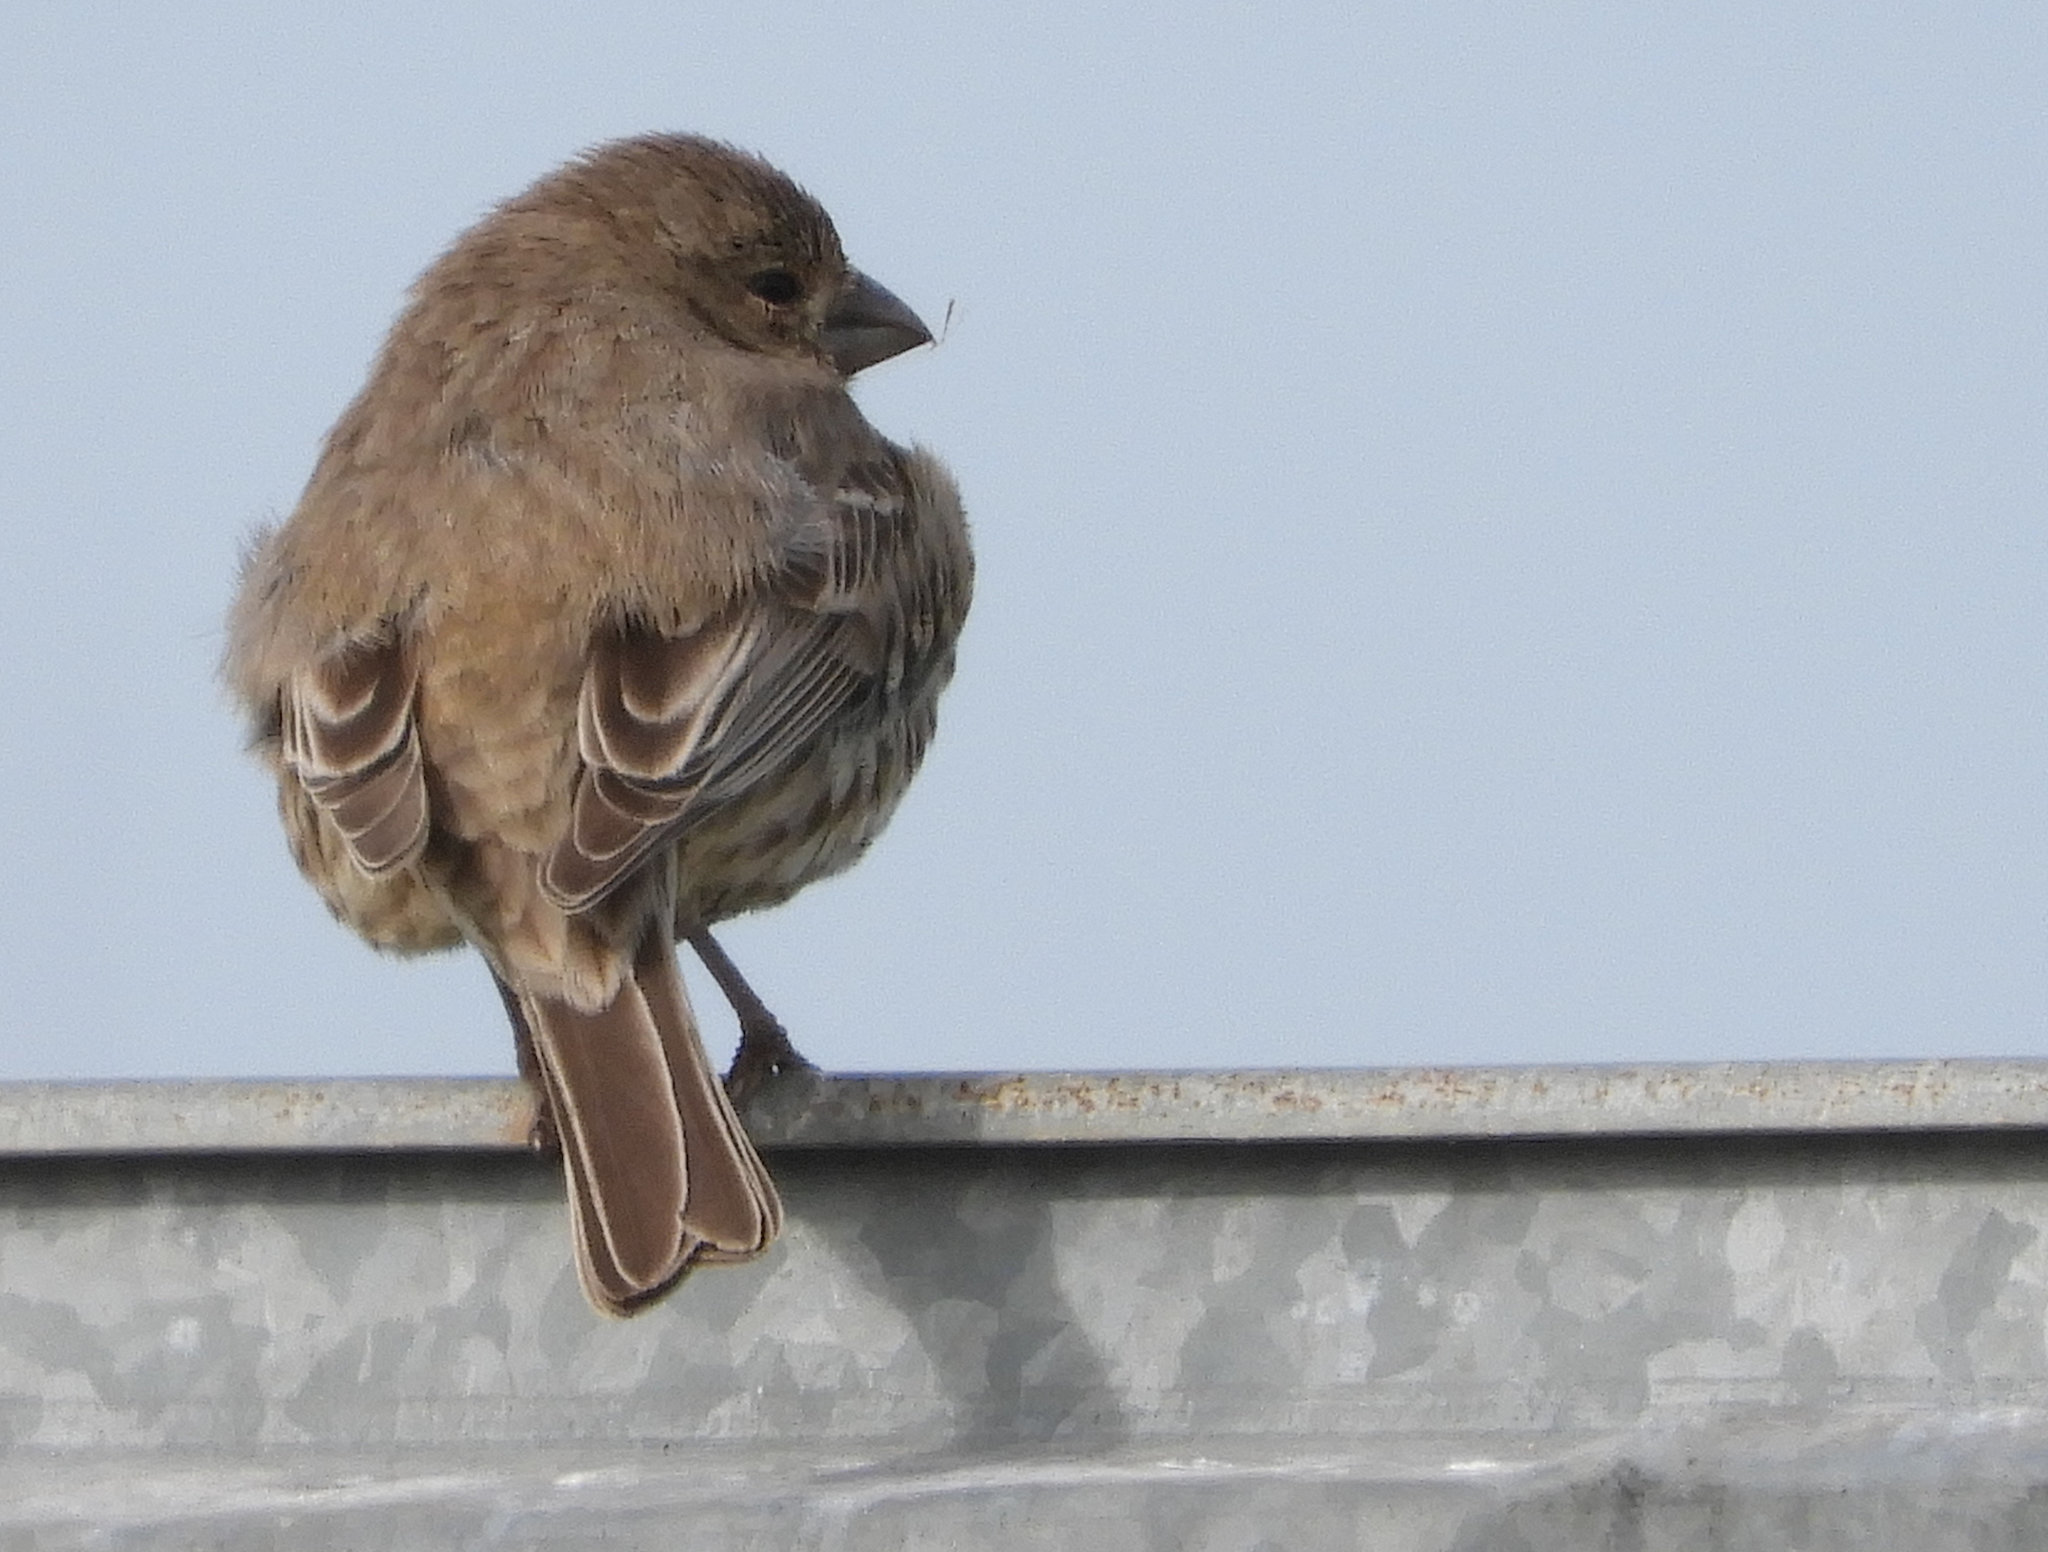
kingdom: Animalia
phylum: Chordata
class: Aves
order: Passeriformes
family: Fringillidae
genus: Haemorhous
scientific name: Haemorhous mexicanus
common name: House finch
